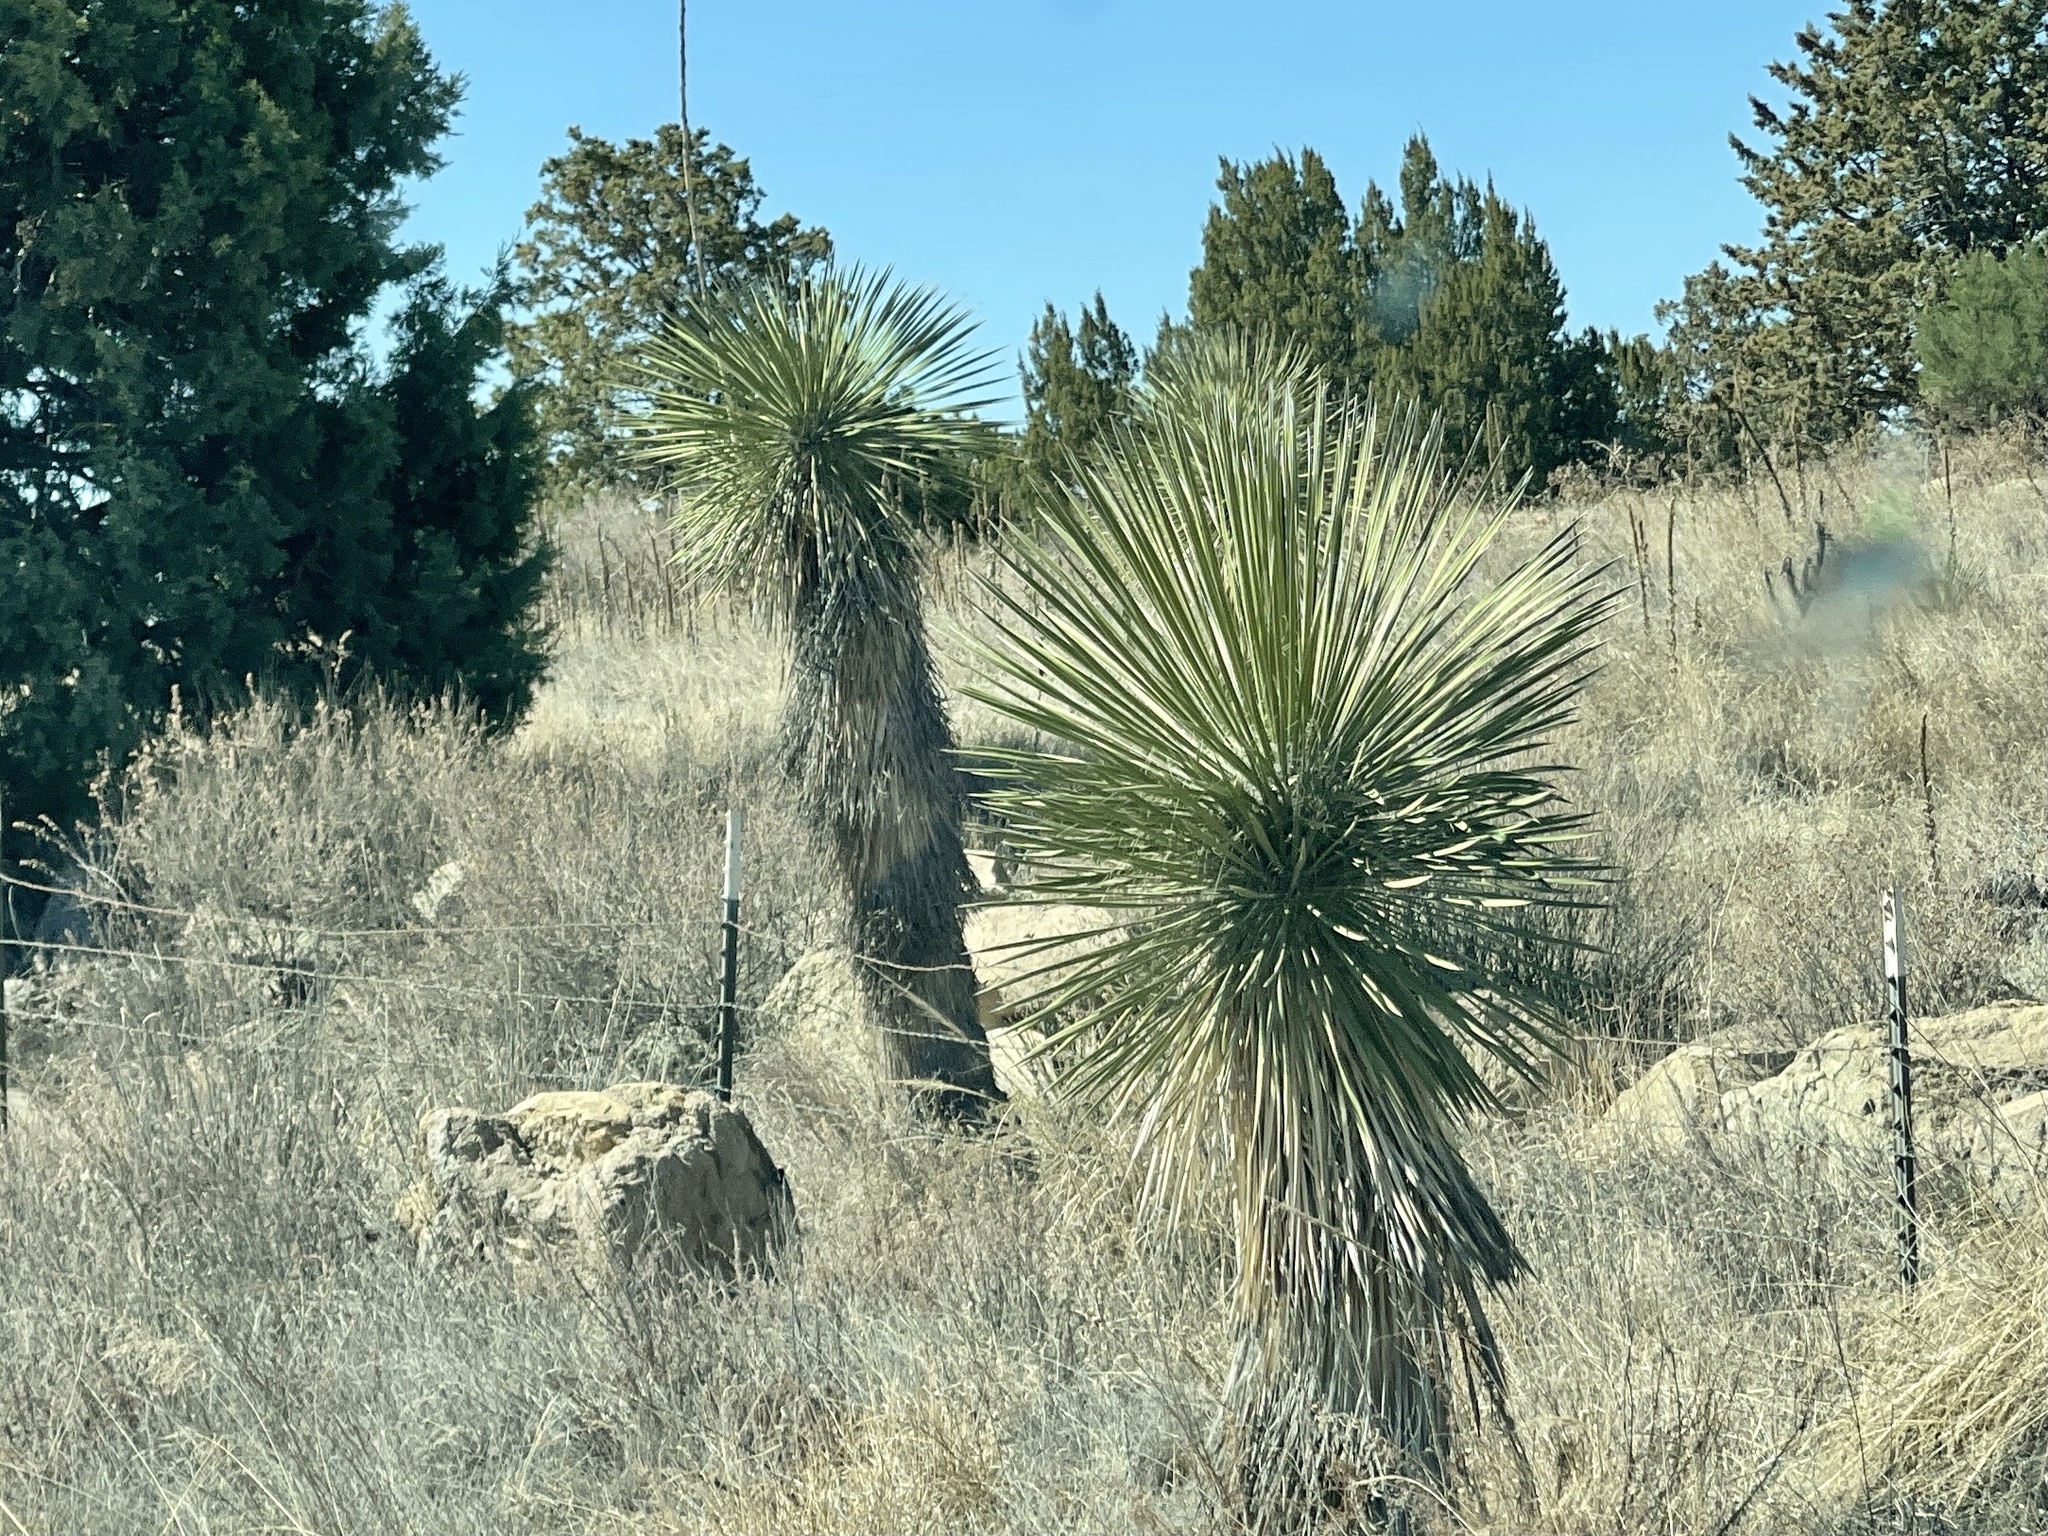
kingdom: Plantae
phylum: Tracheophyta
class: Liliopsida
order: Asparagales
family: Asparagaceae
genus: Yucca
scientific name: Yucca elata
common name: Palmella
